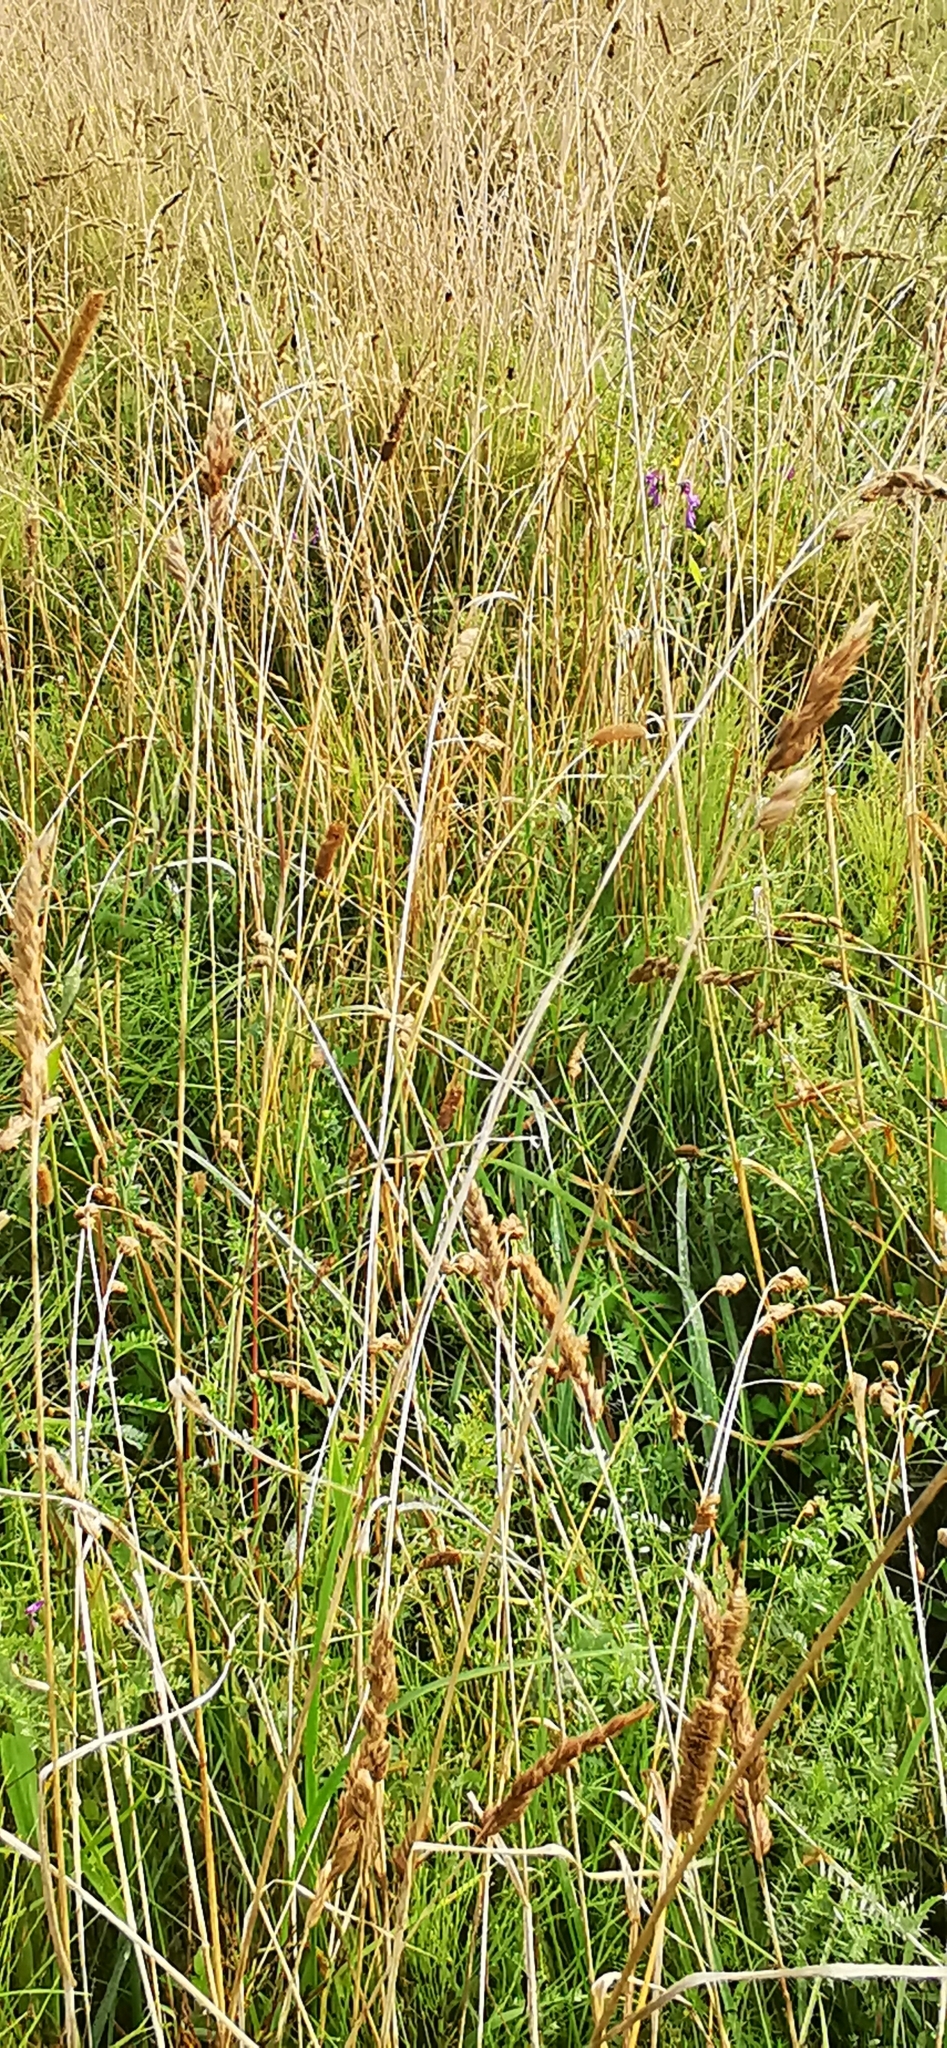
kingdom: Plantae
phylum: Tracheophyta
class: Liliopsida
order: Poales
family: Poaceae
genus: Dactylis
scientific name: Dactylis glomerata
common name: Orchardgrass
